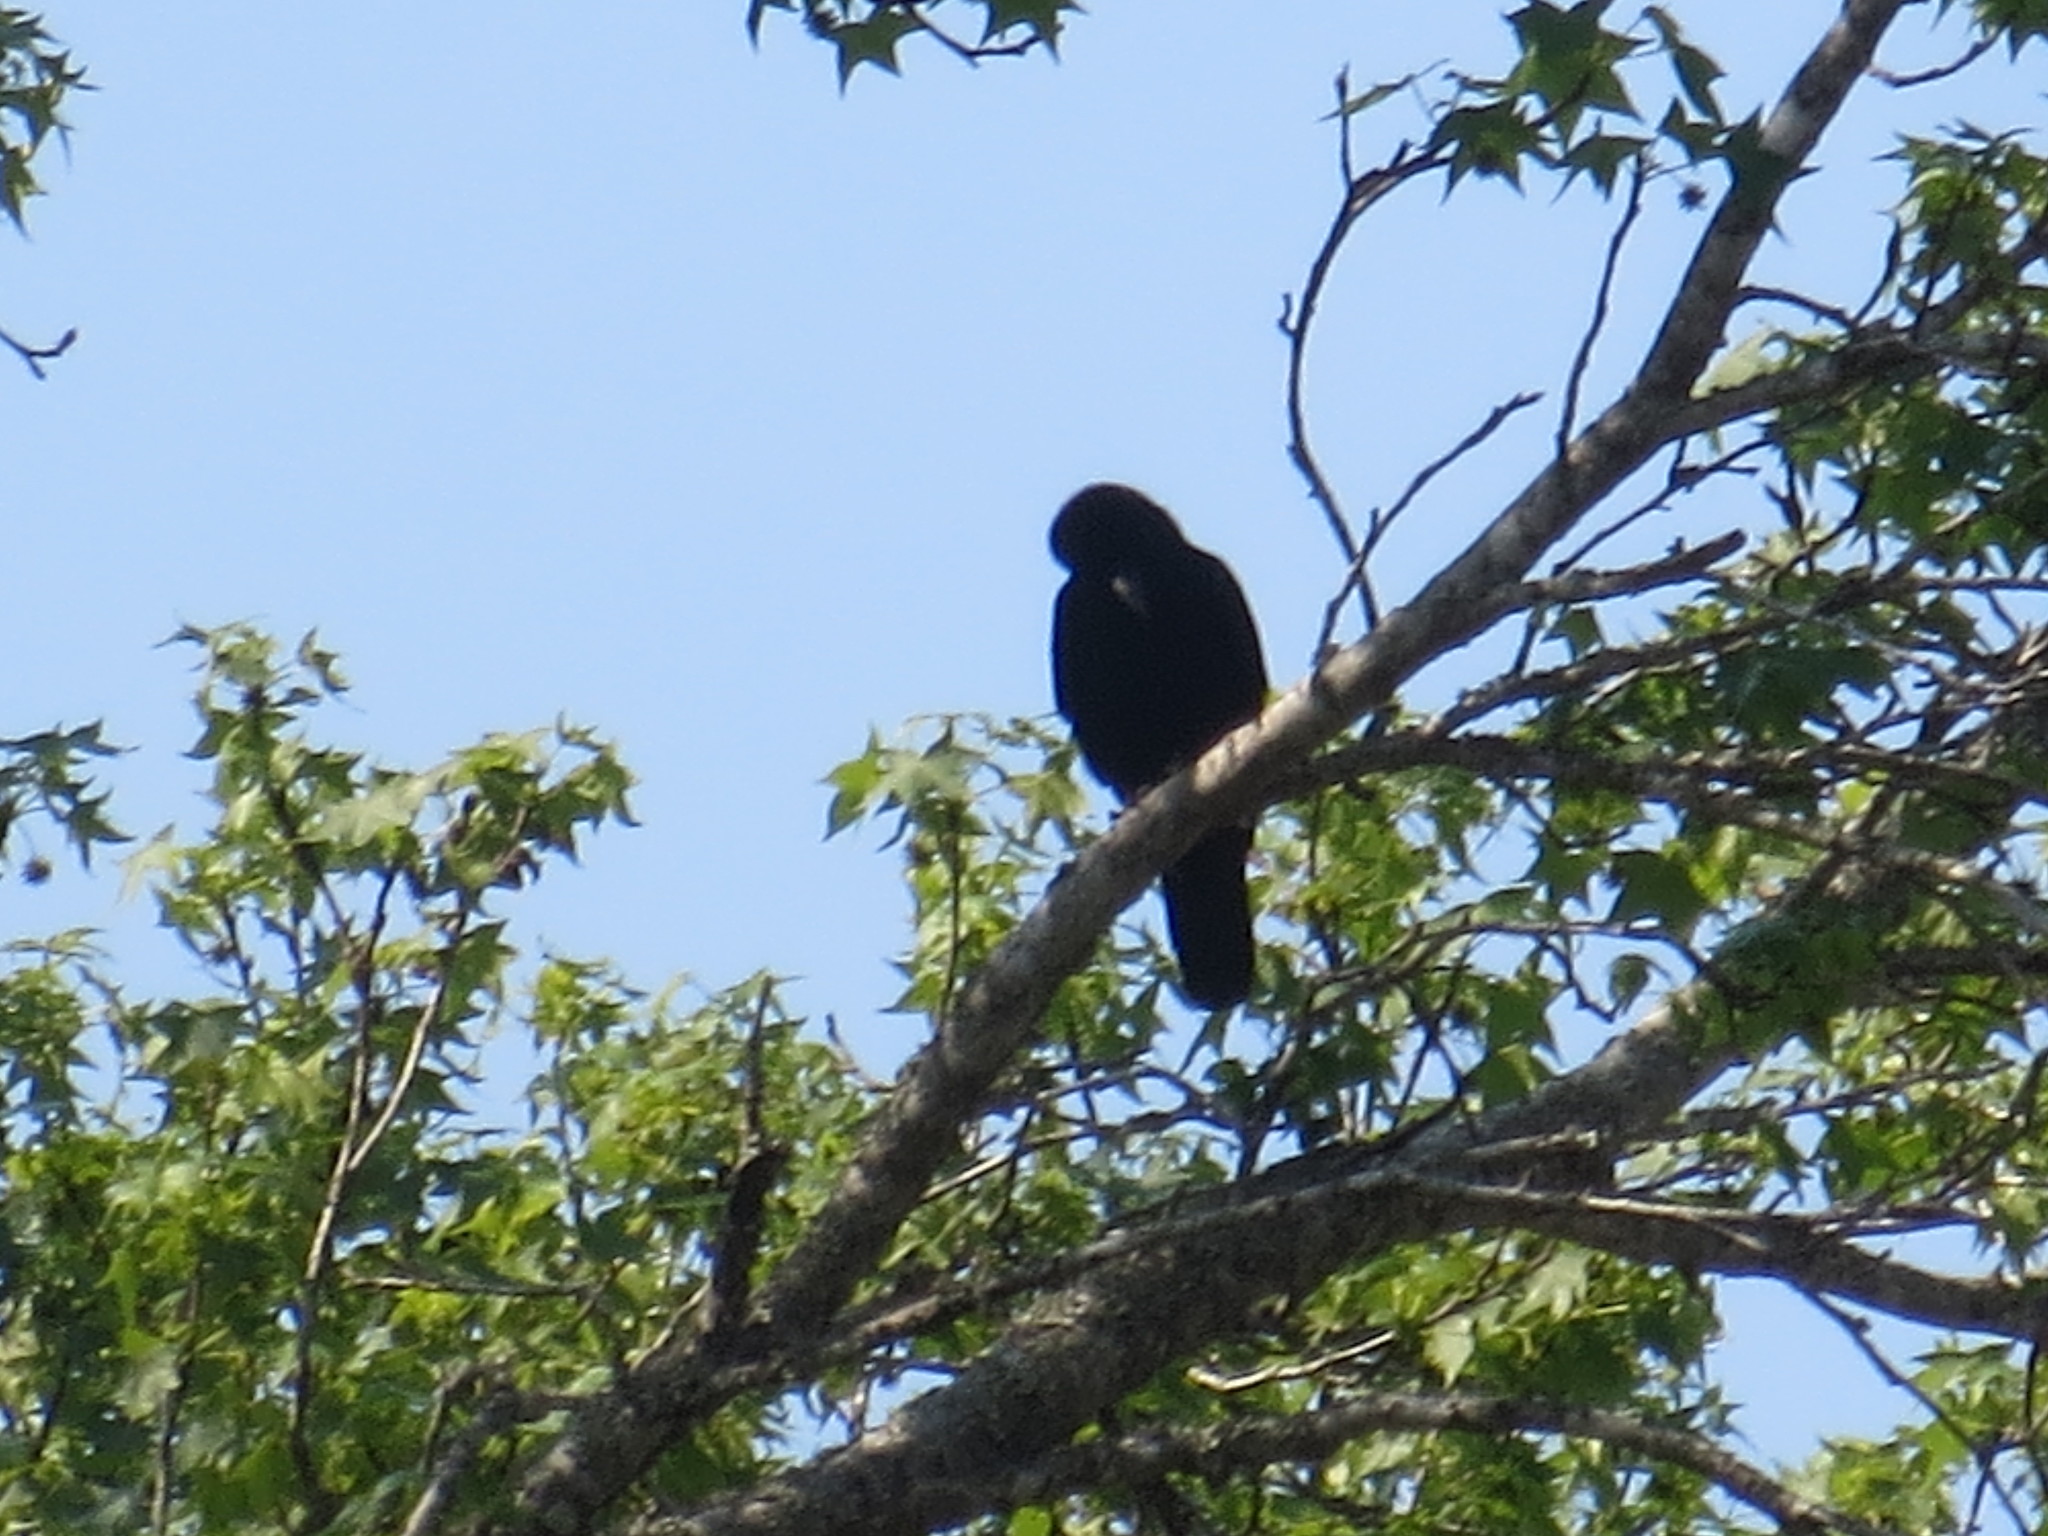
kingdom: Animalia
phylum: Chordata
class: Aves
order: Passeriformes
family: Corvidae
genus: Corvus
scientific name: Corvus ossifragus
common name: Fish crow
